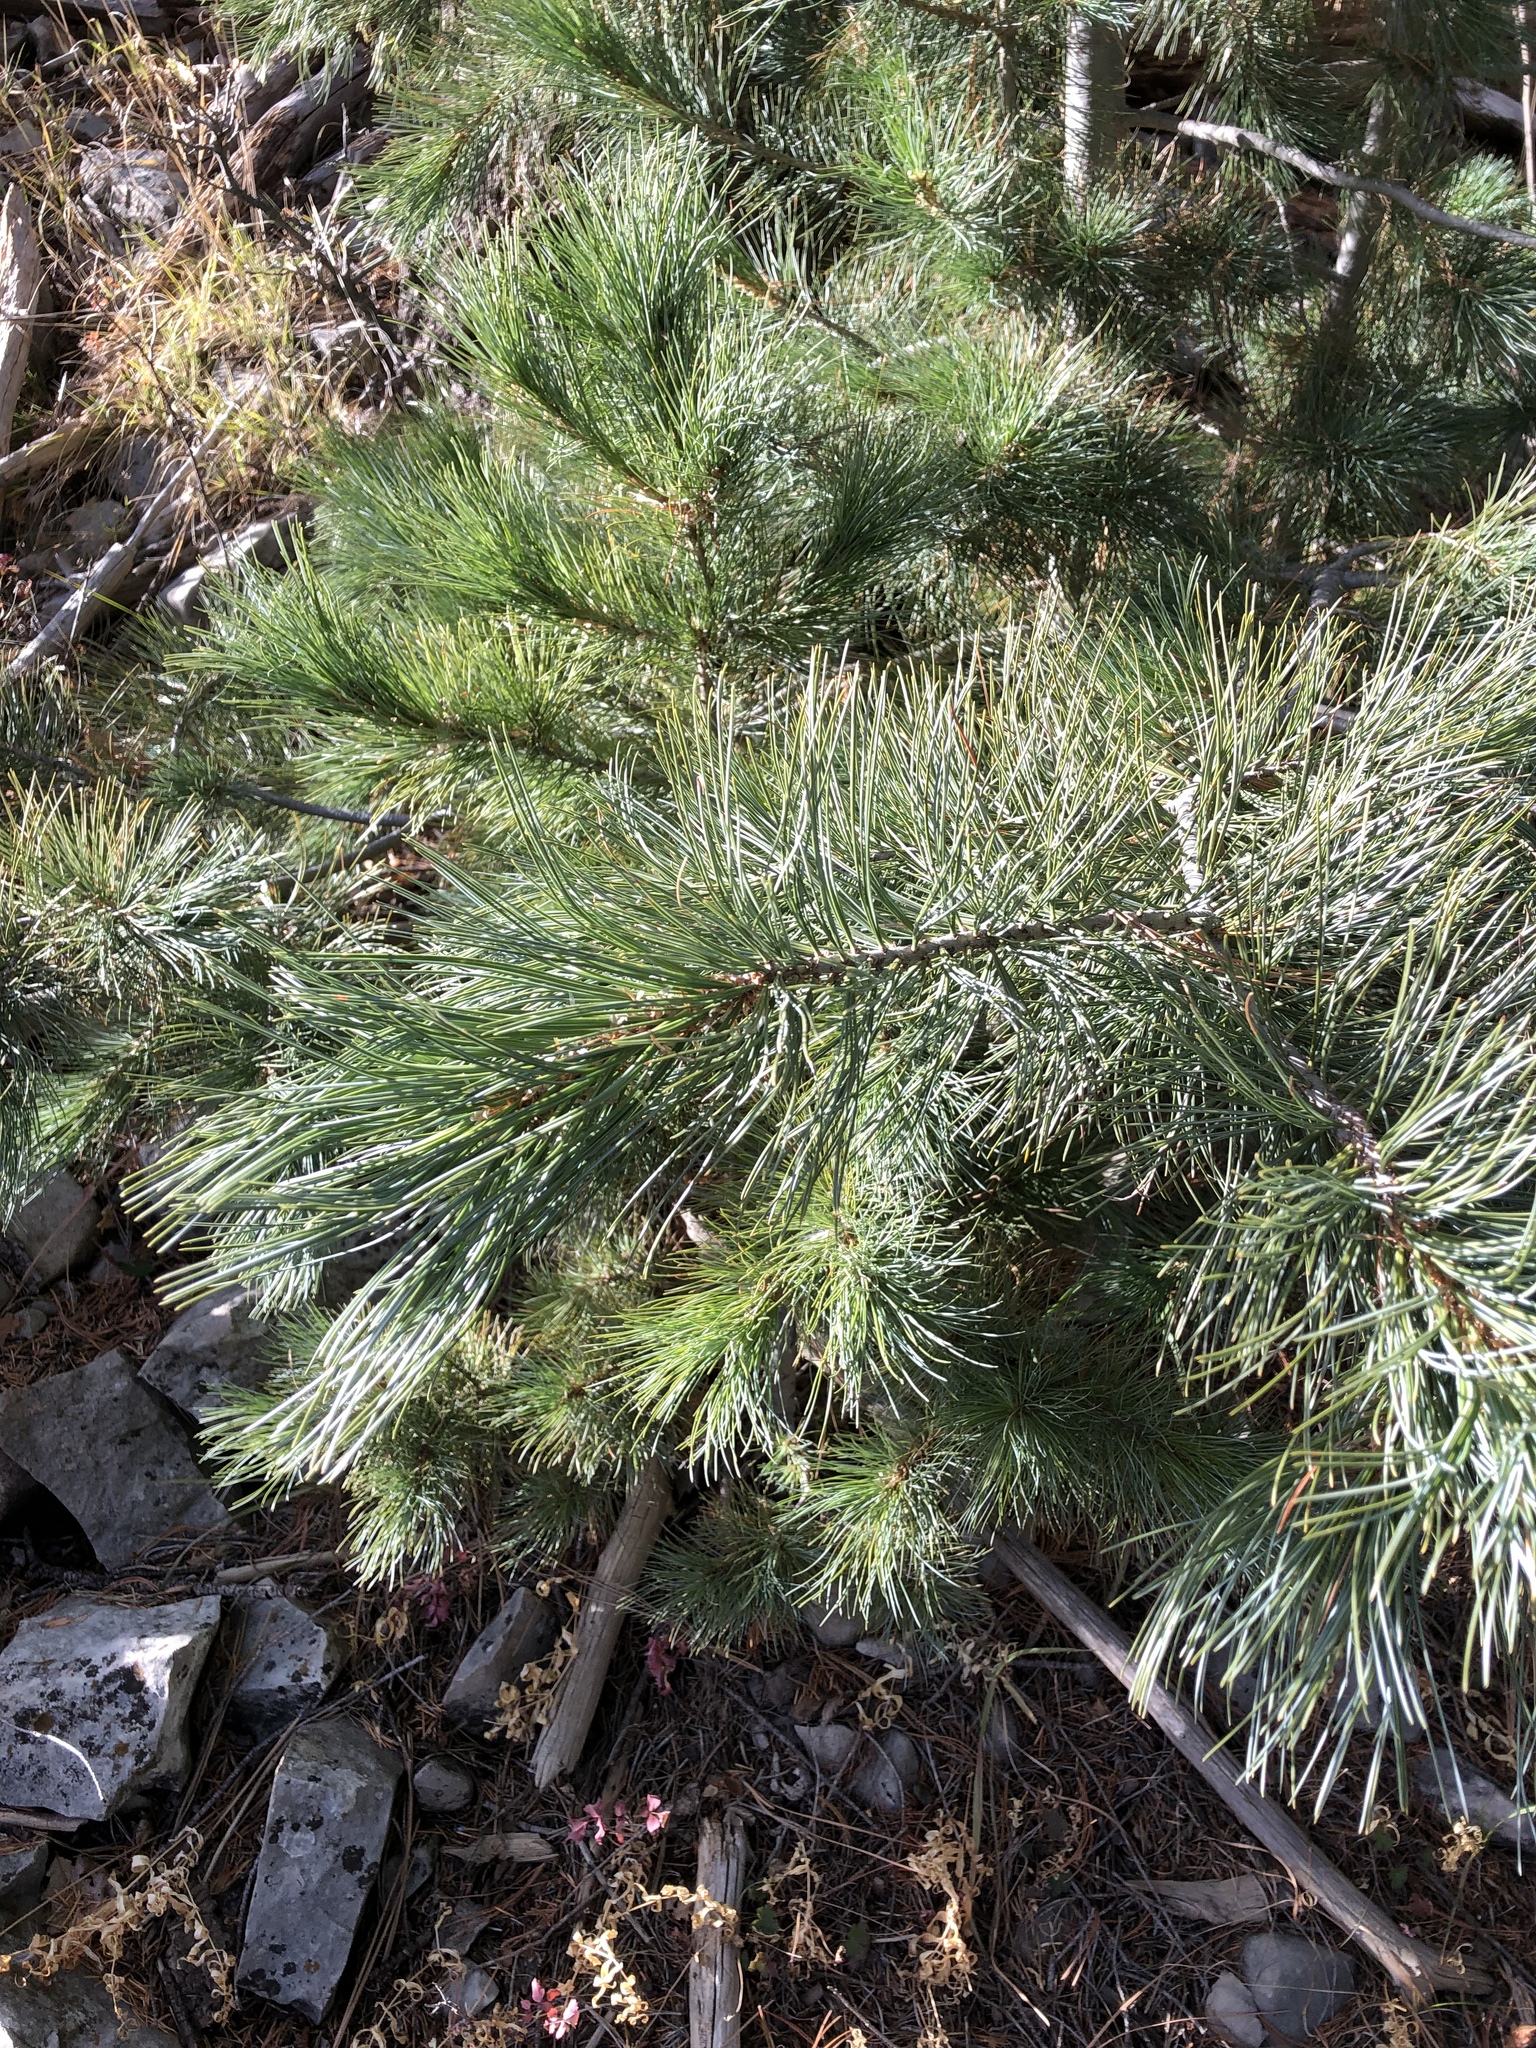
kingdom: Plantae
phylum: Tracheophyta
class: Pinopsida
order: Pinales
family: Pinaceae
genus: Pinus
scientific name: Pinus strobiformis
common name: Southwestern white pine
